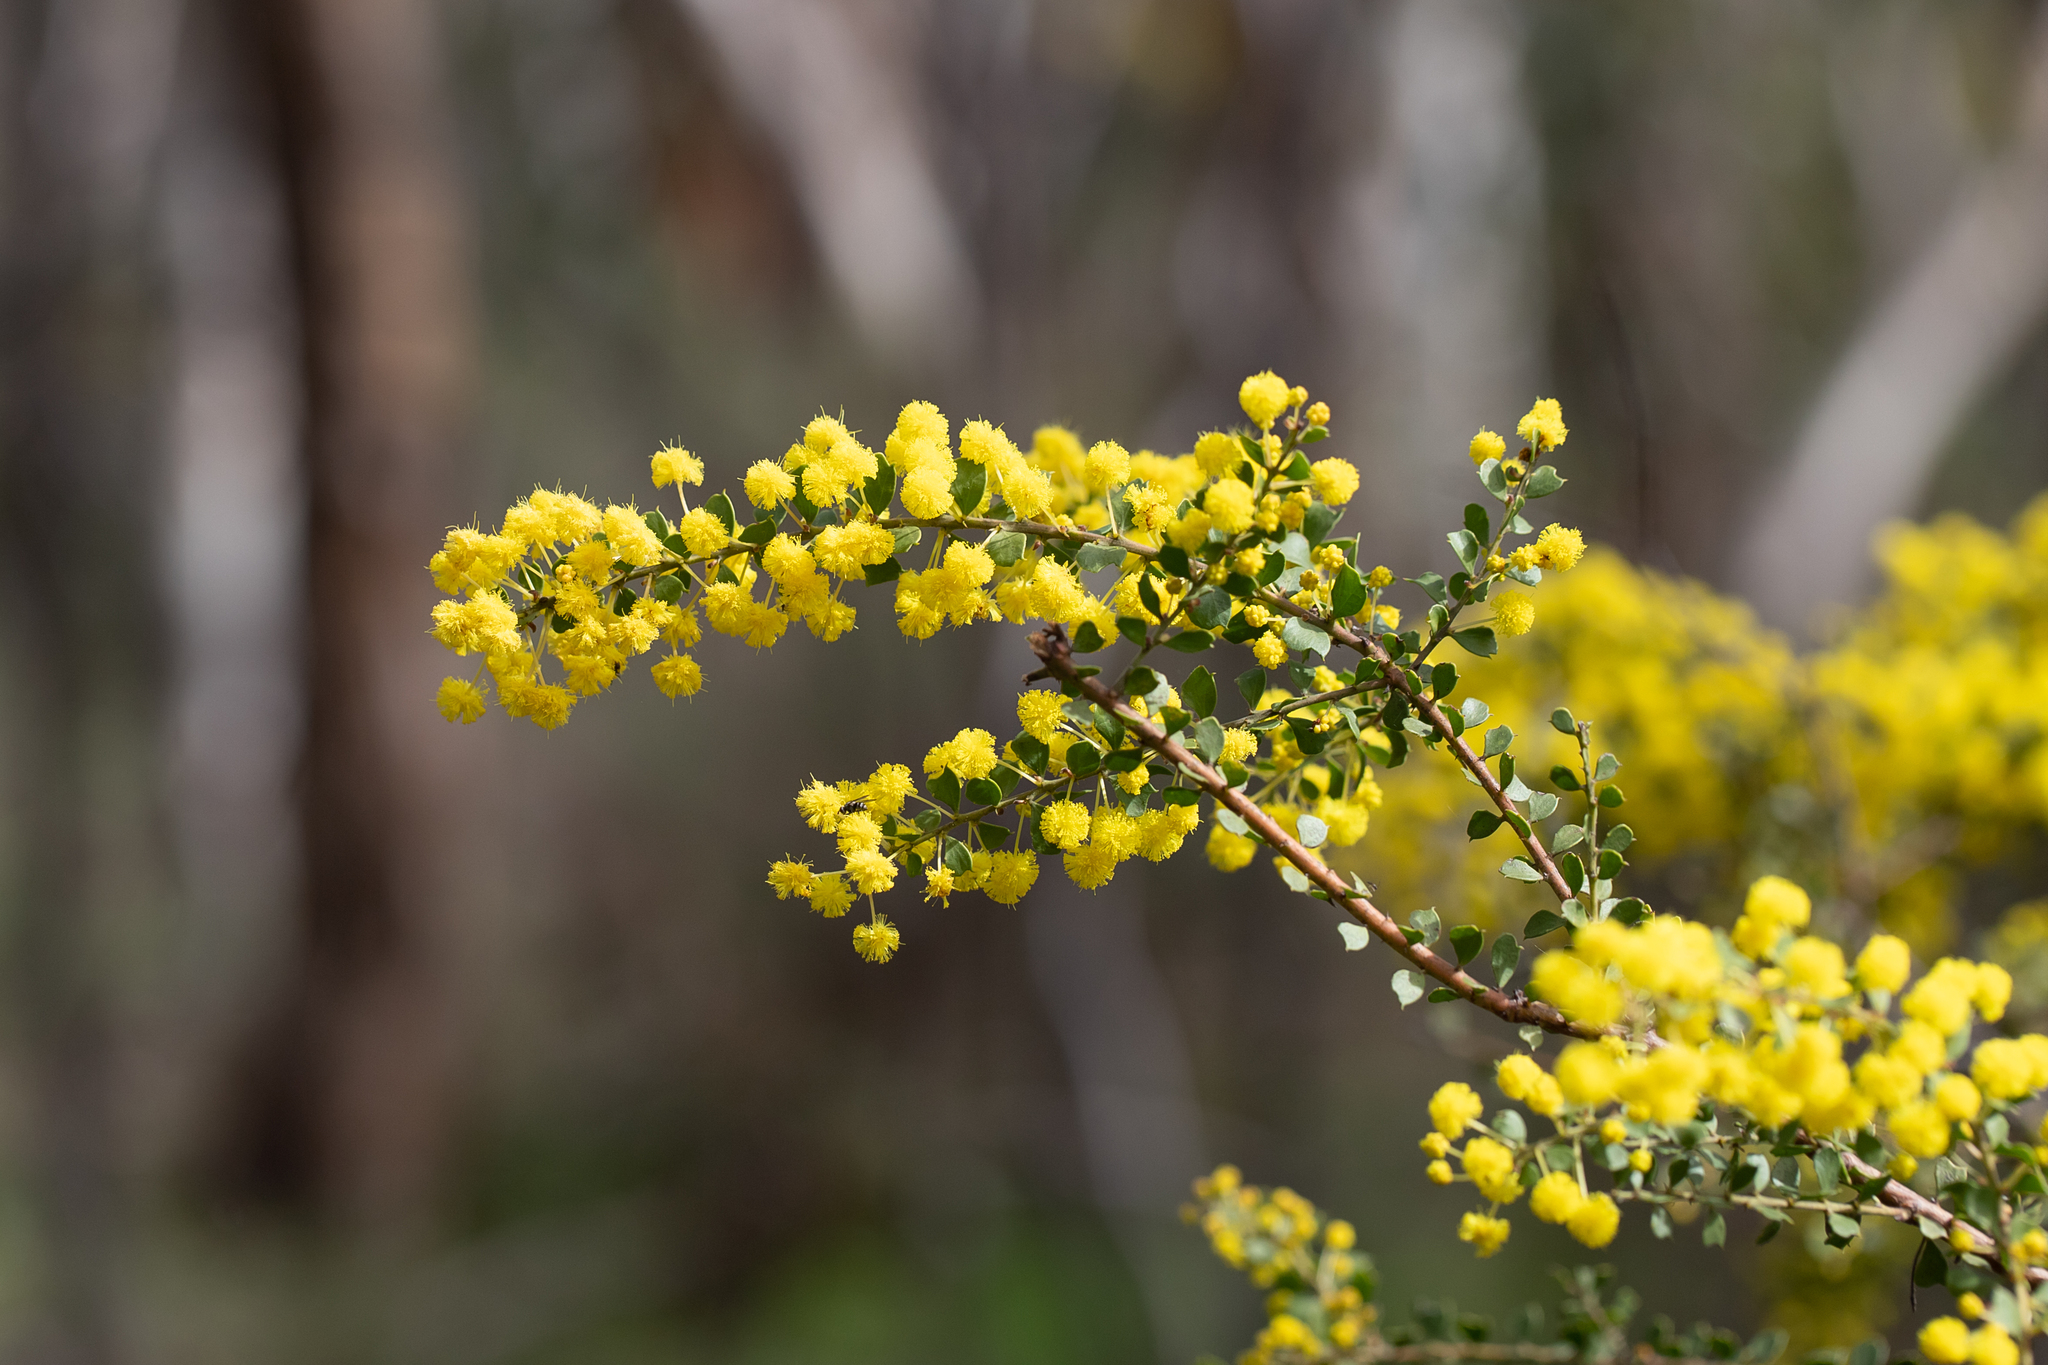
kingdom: Plantae
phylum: Tracheophyta
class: Magnoliopsida
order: Fabales
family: Fabaceae
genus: Acacia
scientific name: Acacia acinacea
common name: Gold-dust acacia
